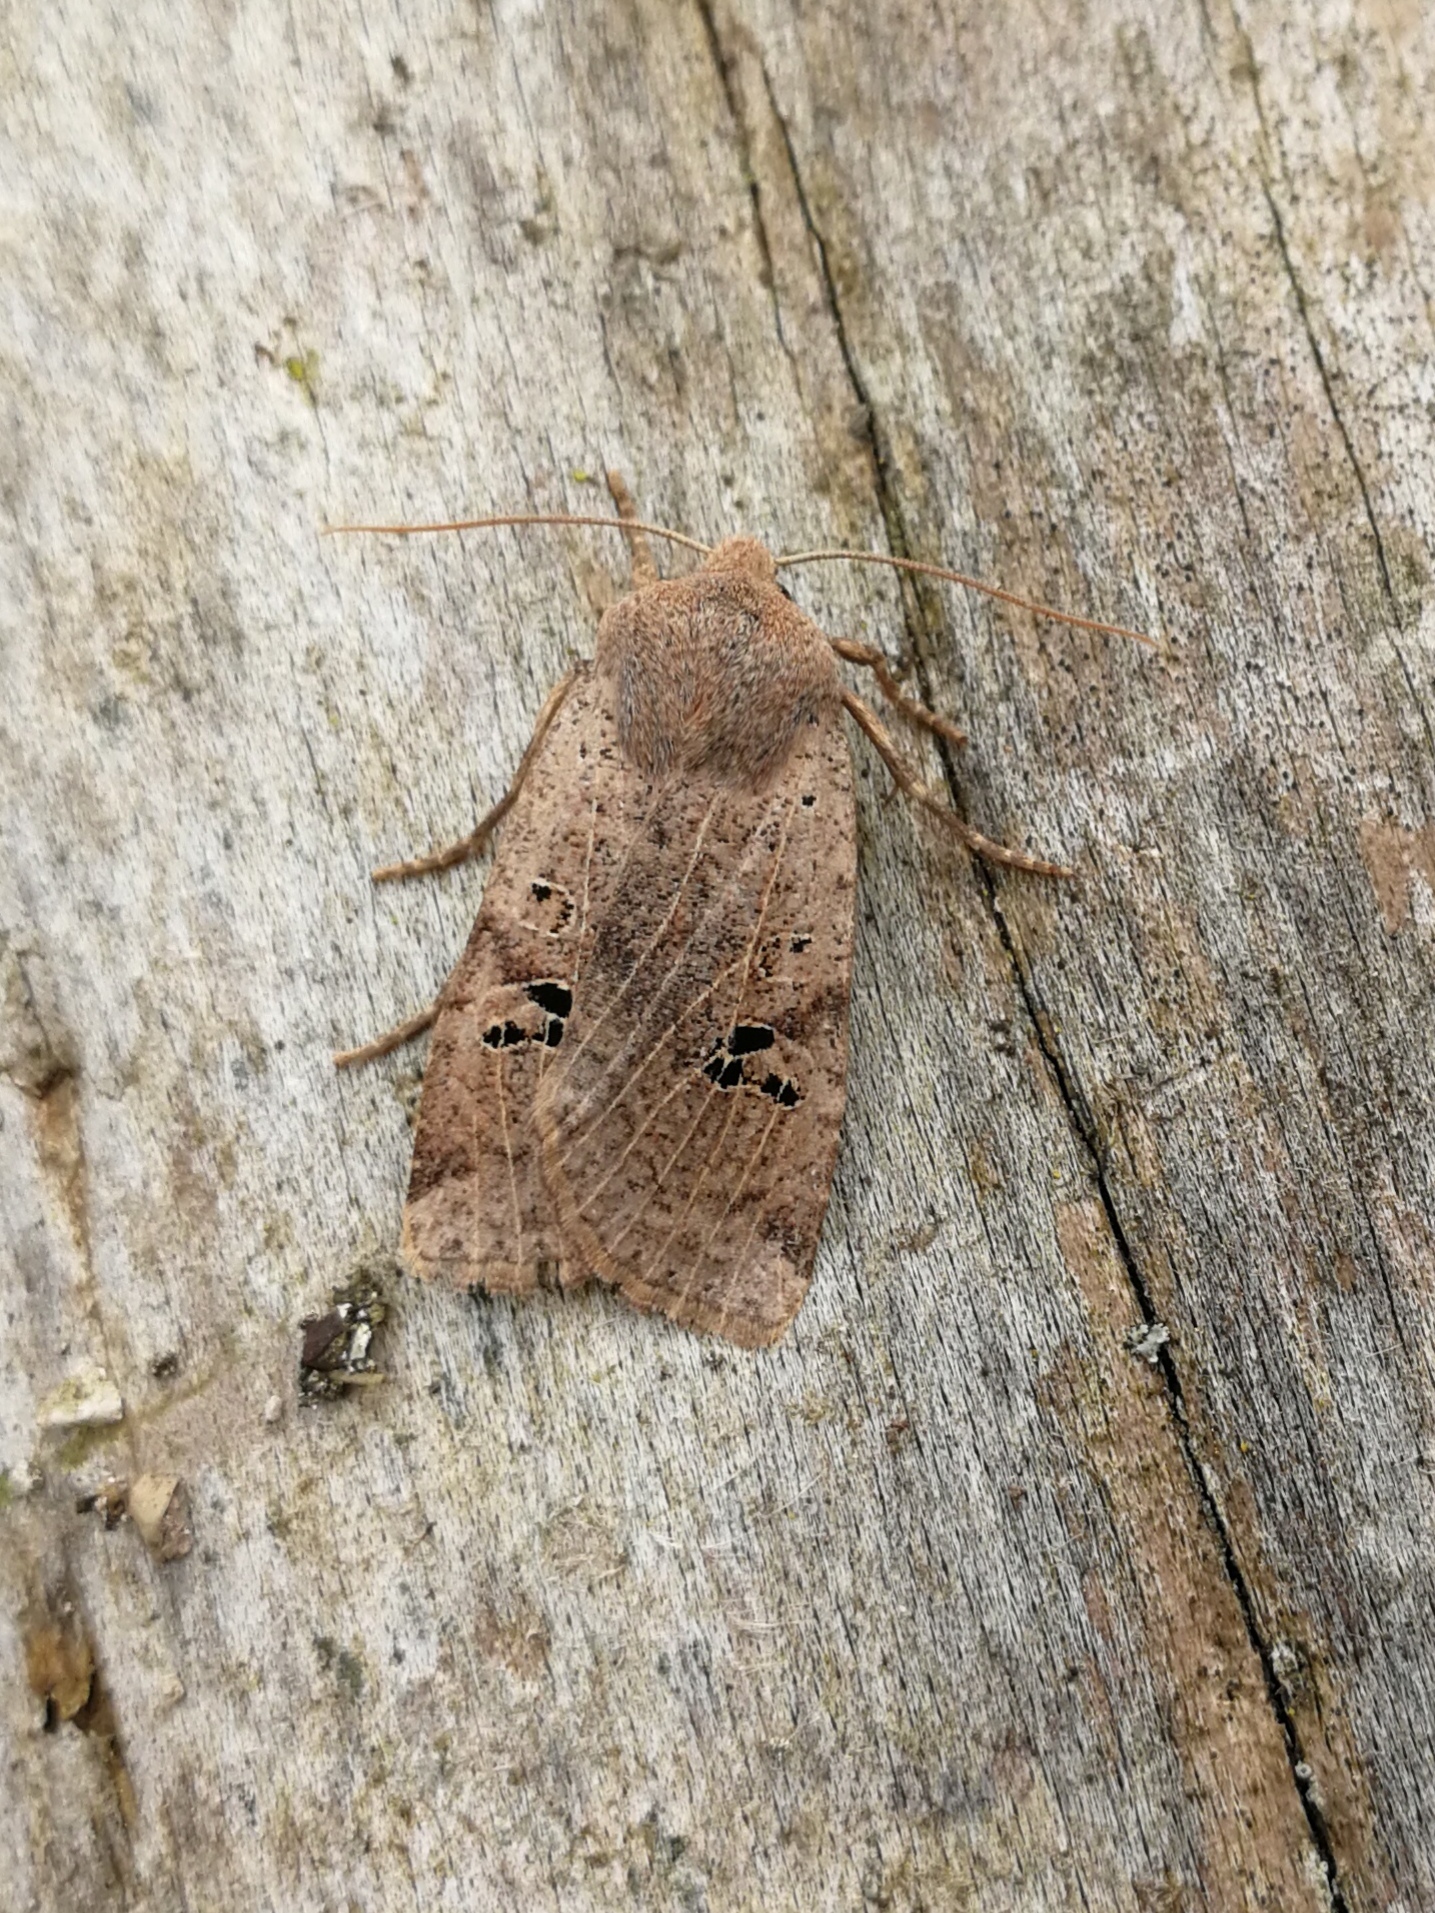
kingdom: Animalia
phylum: Arthropoda
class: Insecta
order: Lepidoptera
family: Noctuidae
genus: Conistra
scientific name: Conistra rubiginosa
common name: Black-spotted chestnut
